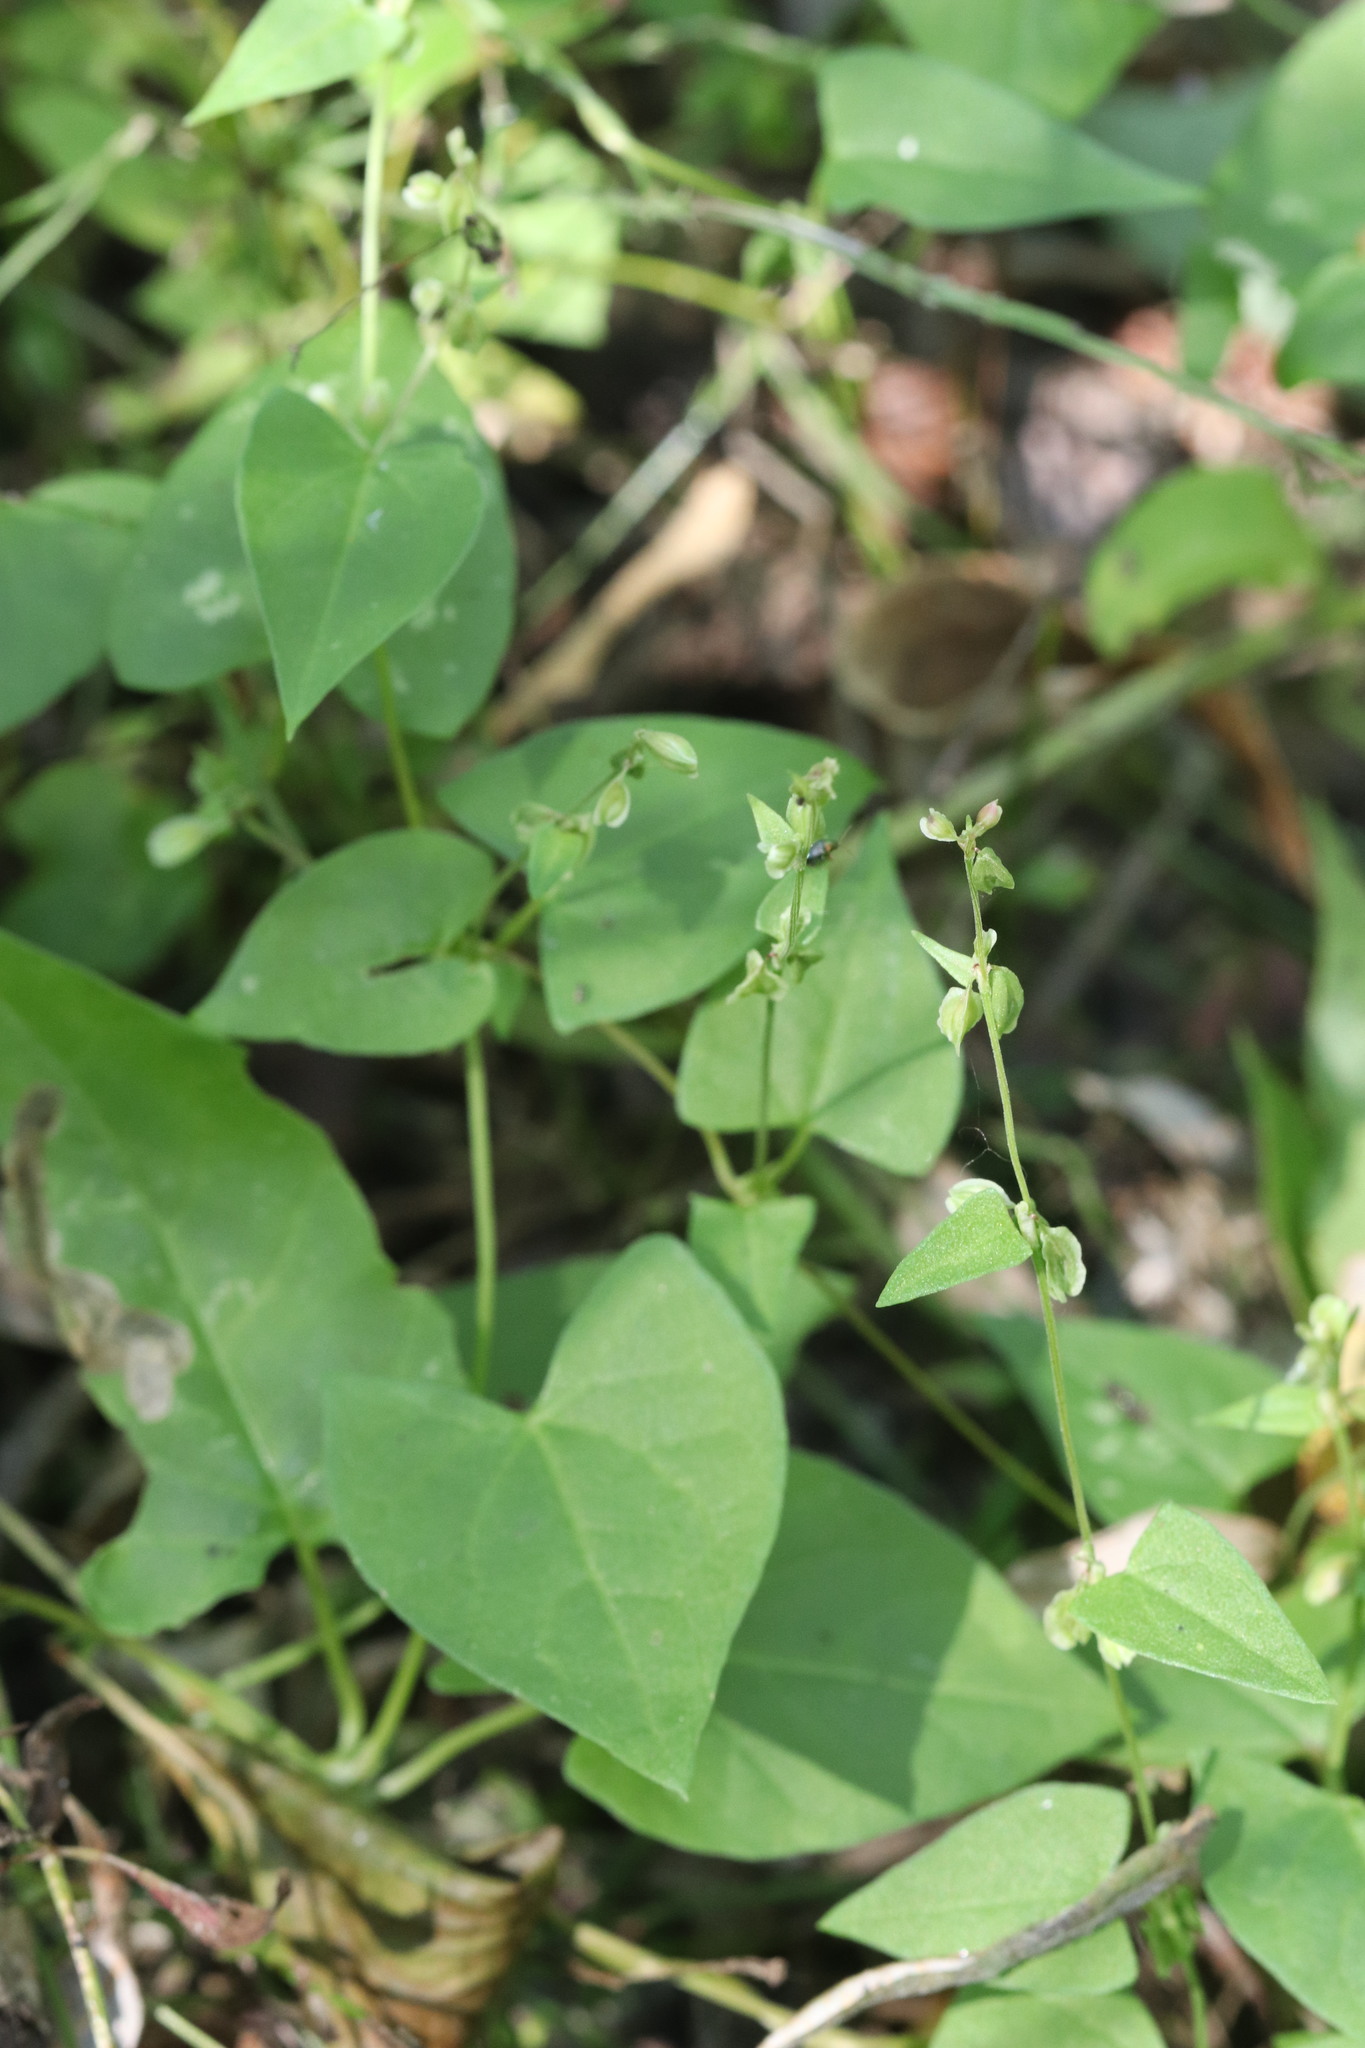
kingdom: Plantae
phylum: Tracheophyta
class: Magnoliopsida
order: Caryophyllales
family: Polygonaceae
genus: Fallopia
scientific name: Fallopia dumetorum
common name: Copse-bindweed
